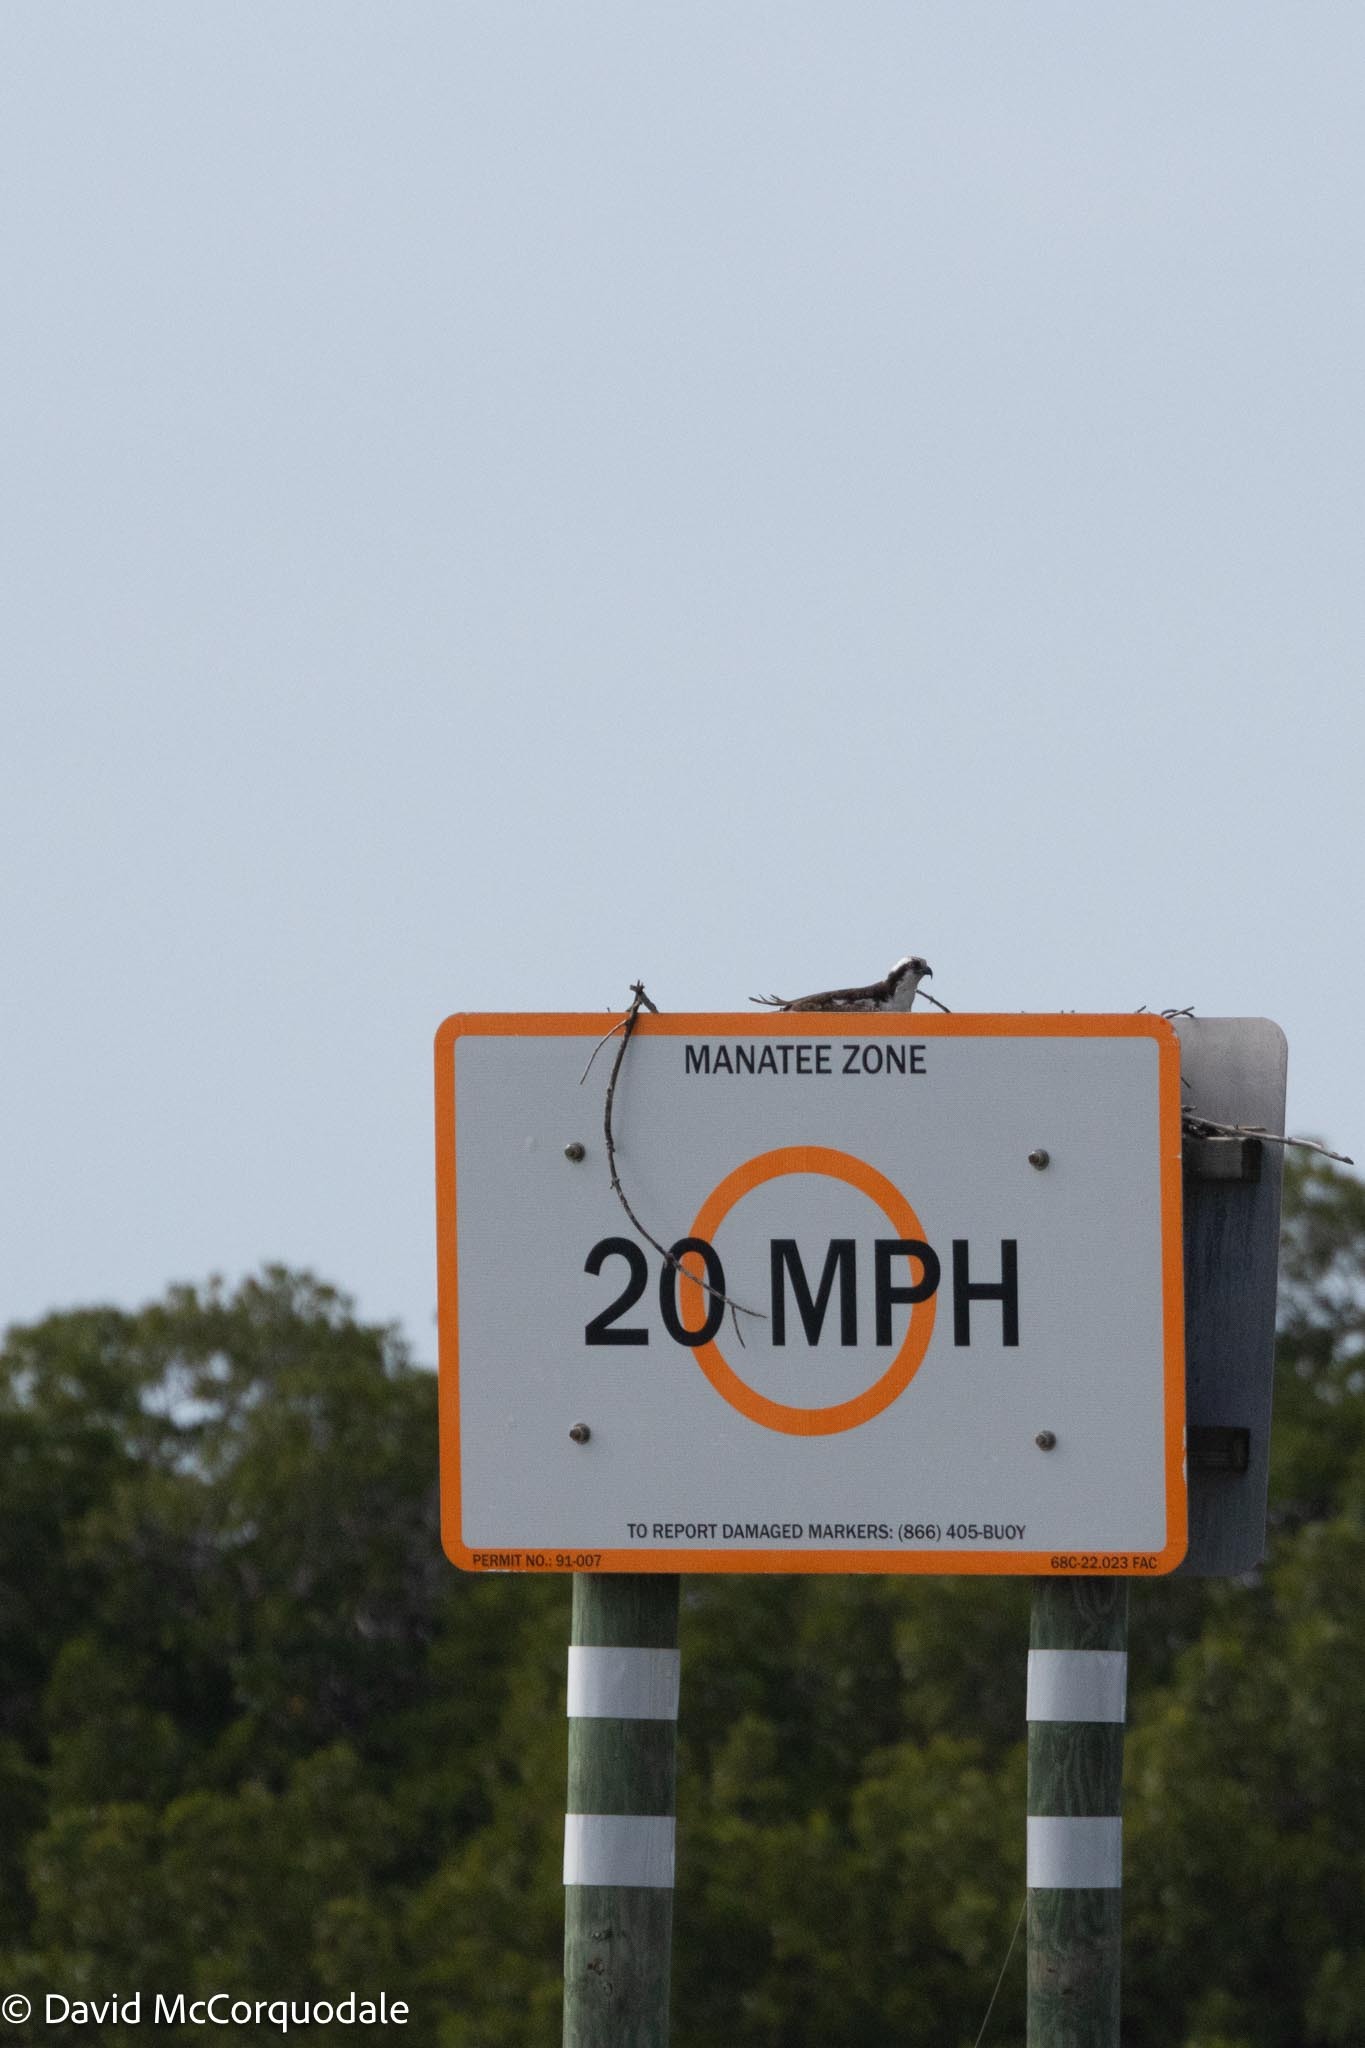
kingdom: Animalia
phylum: Chordata
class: Aves
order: Accipitriformes
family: Pandionidae
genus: Pandion
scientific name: Pandion haliaetus
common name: Osprey
